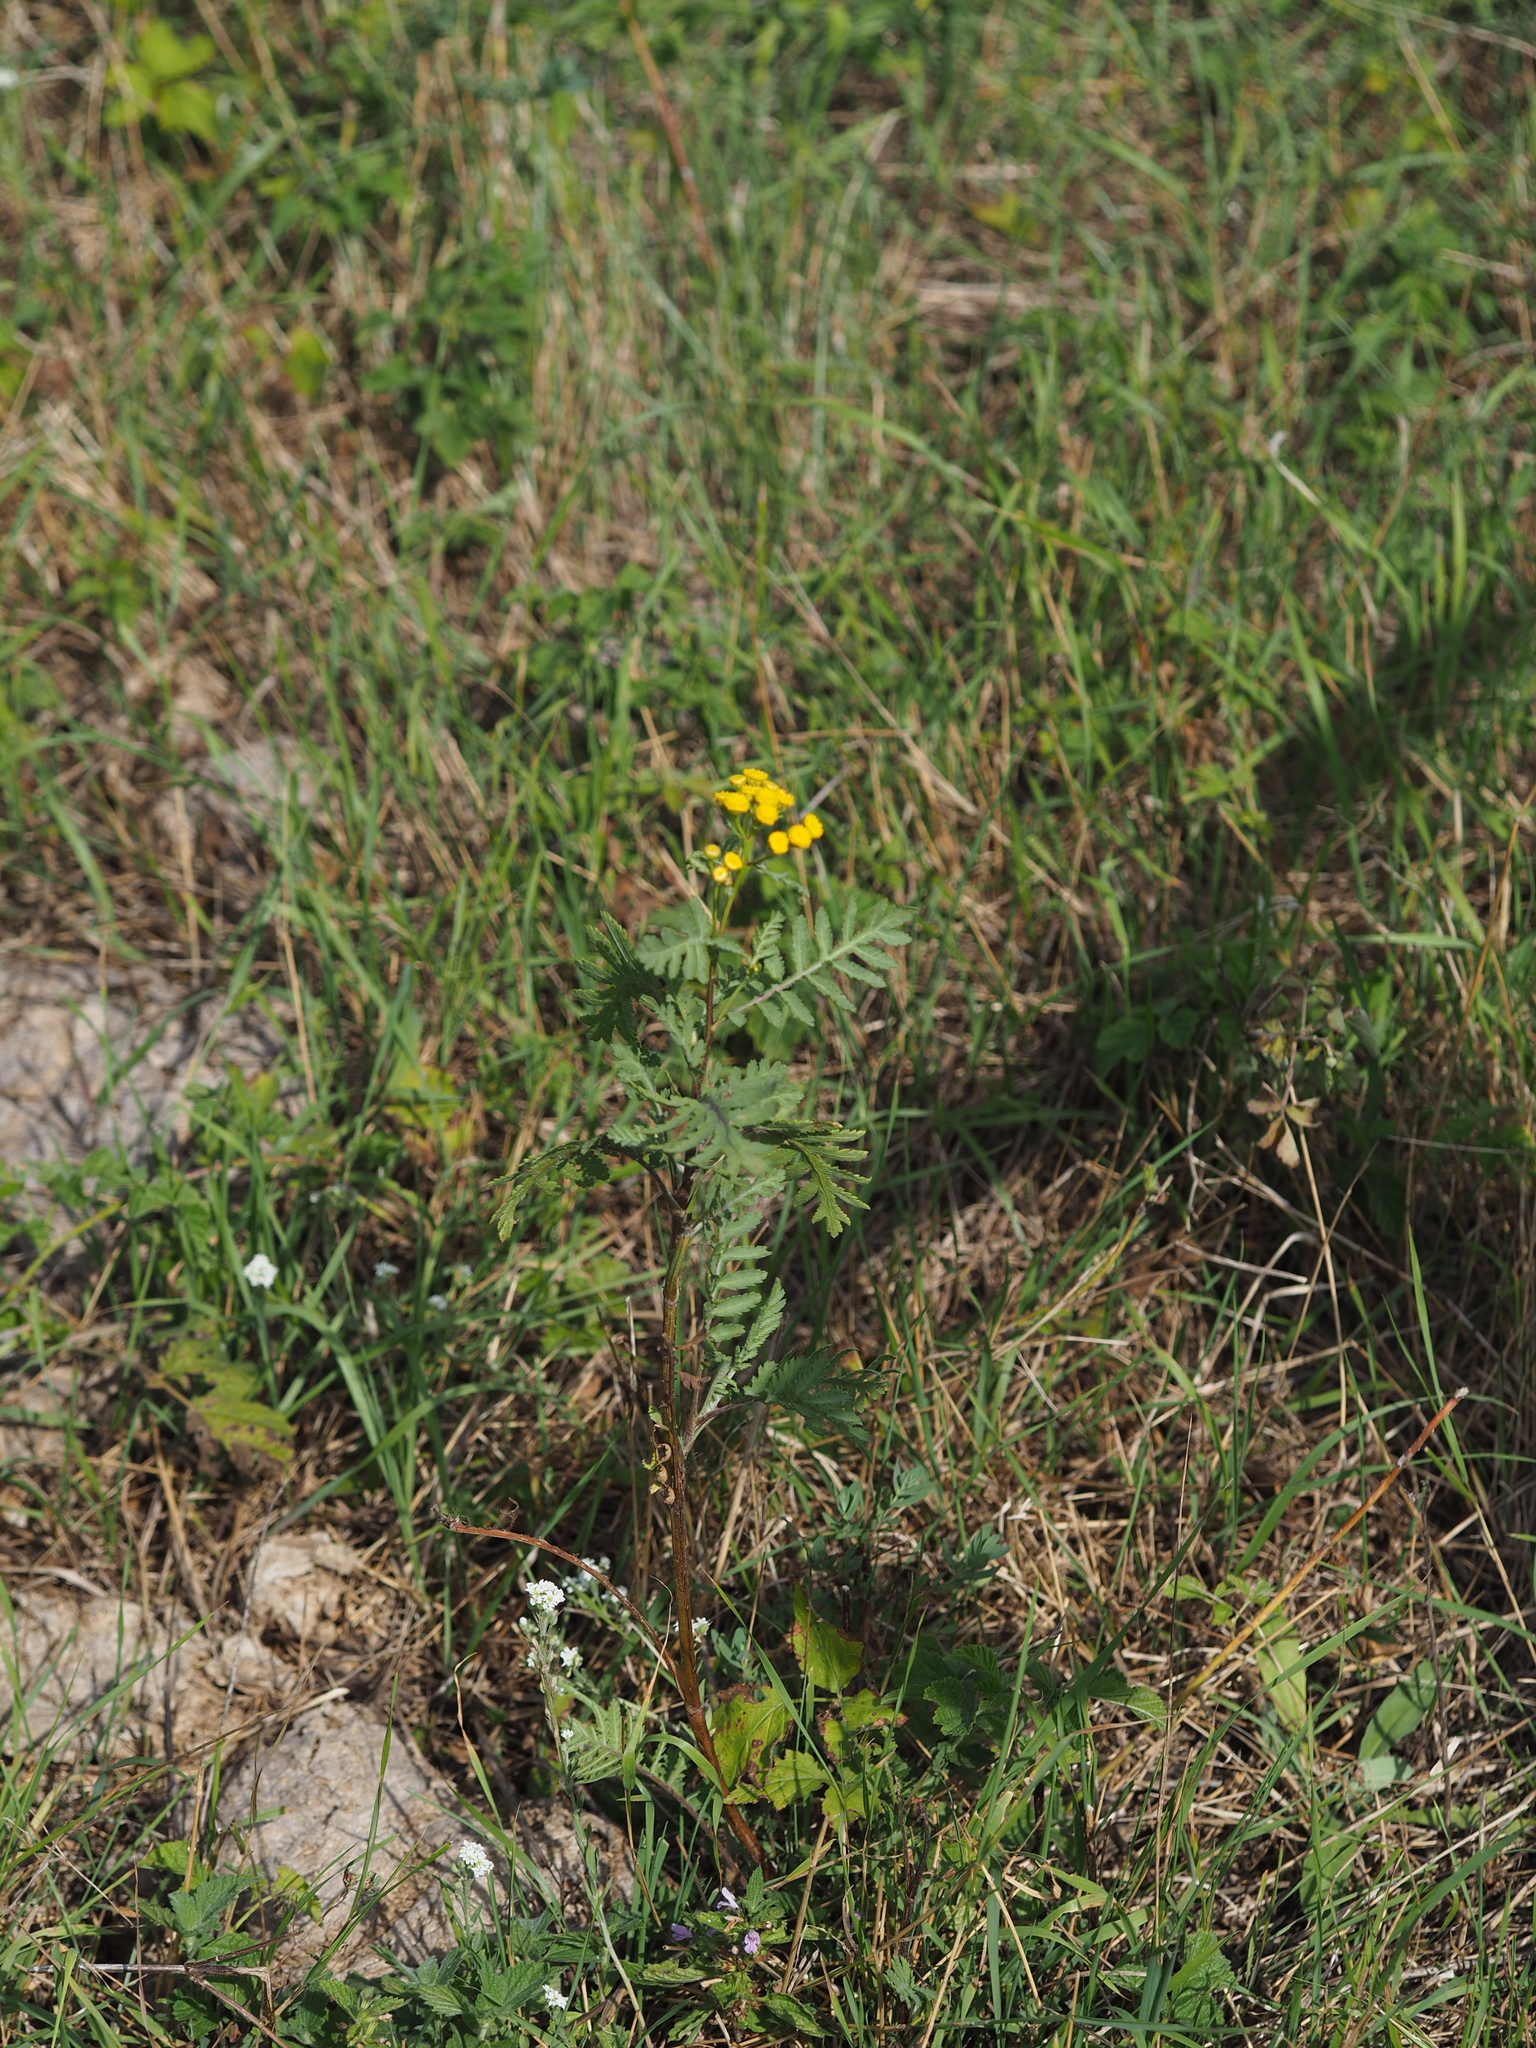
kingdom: Plantae
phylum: Tracheophyta
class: Magnoliopsida
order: Asterales
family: Asteraceae
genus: Tanacetum
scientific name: Tanacetum vulgare
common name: Common tansy
